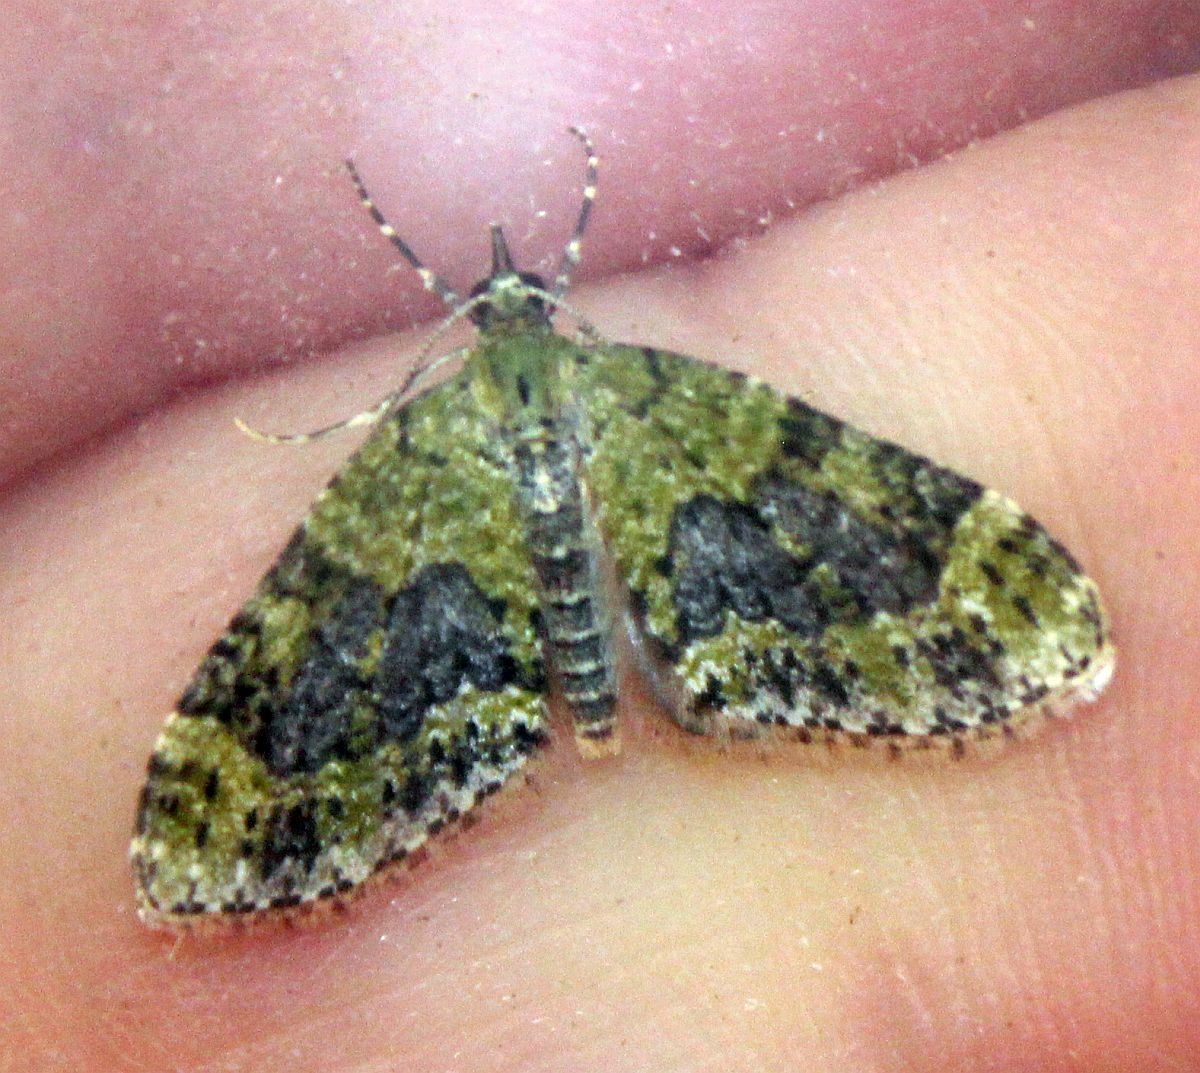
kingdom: Animalia
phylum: Arthropoda
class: Insecta
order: Lepidoptera
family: Geometridae
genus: Acasis
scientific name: Acasis viretata
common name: Yellow-barred brindle
